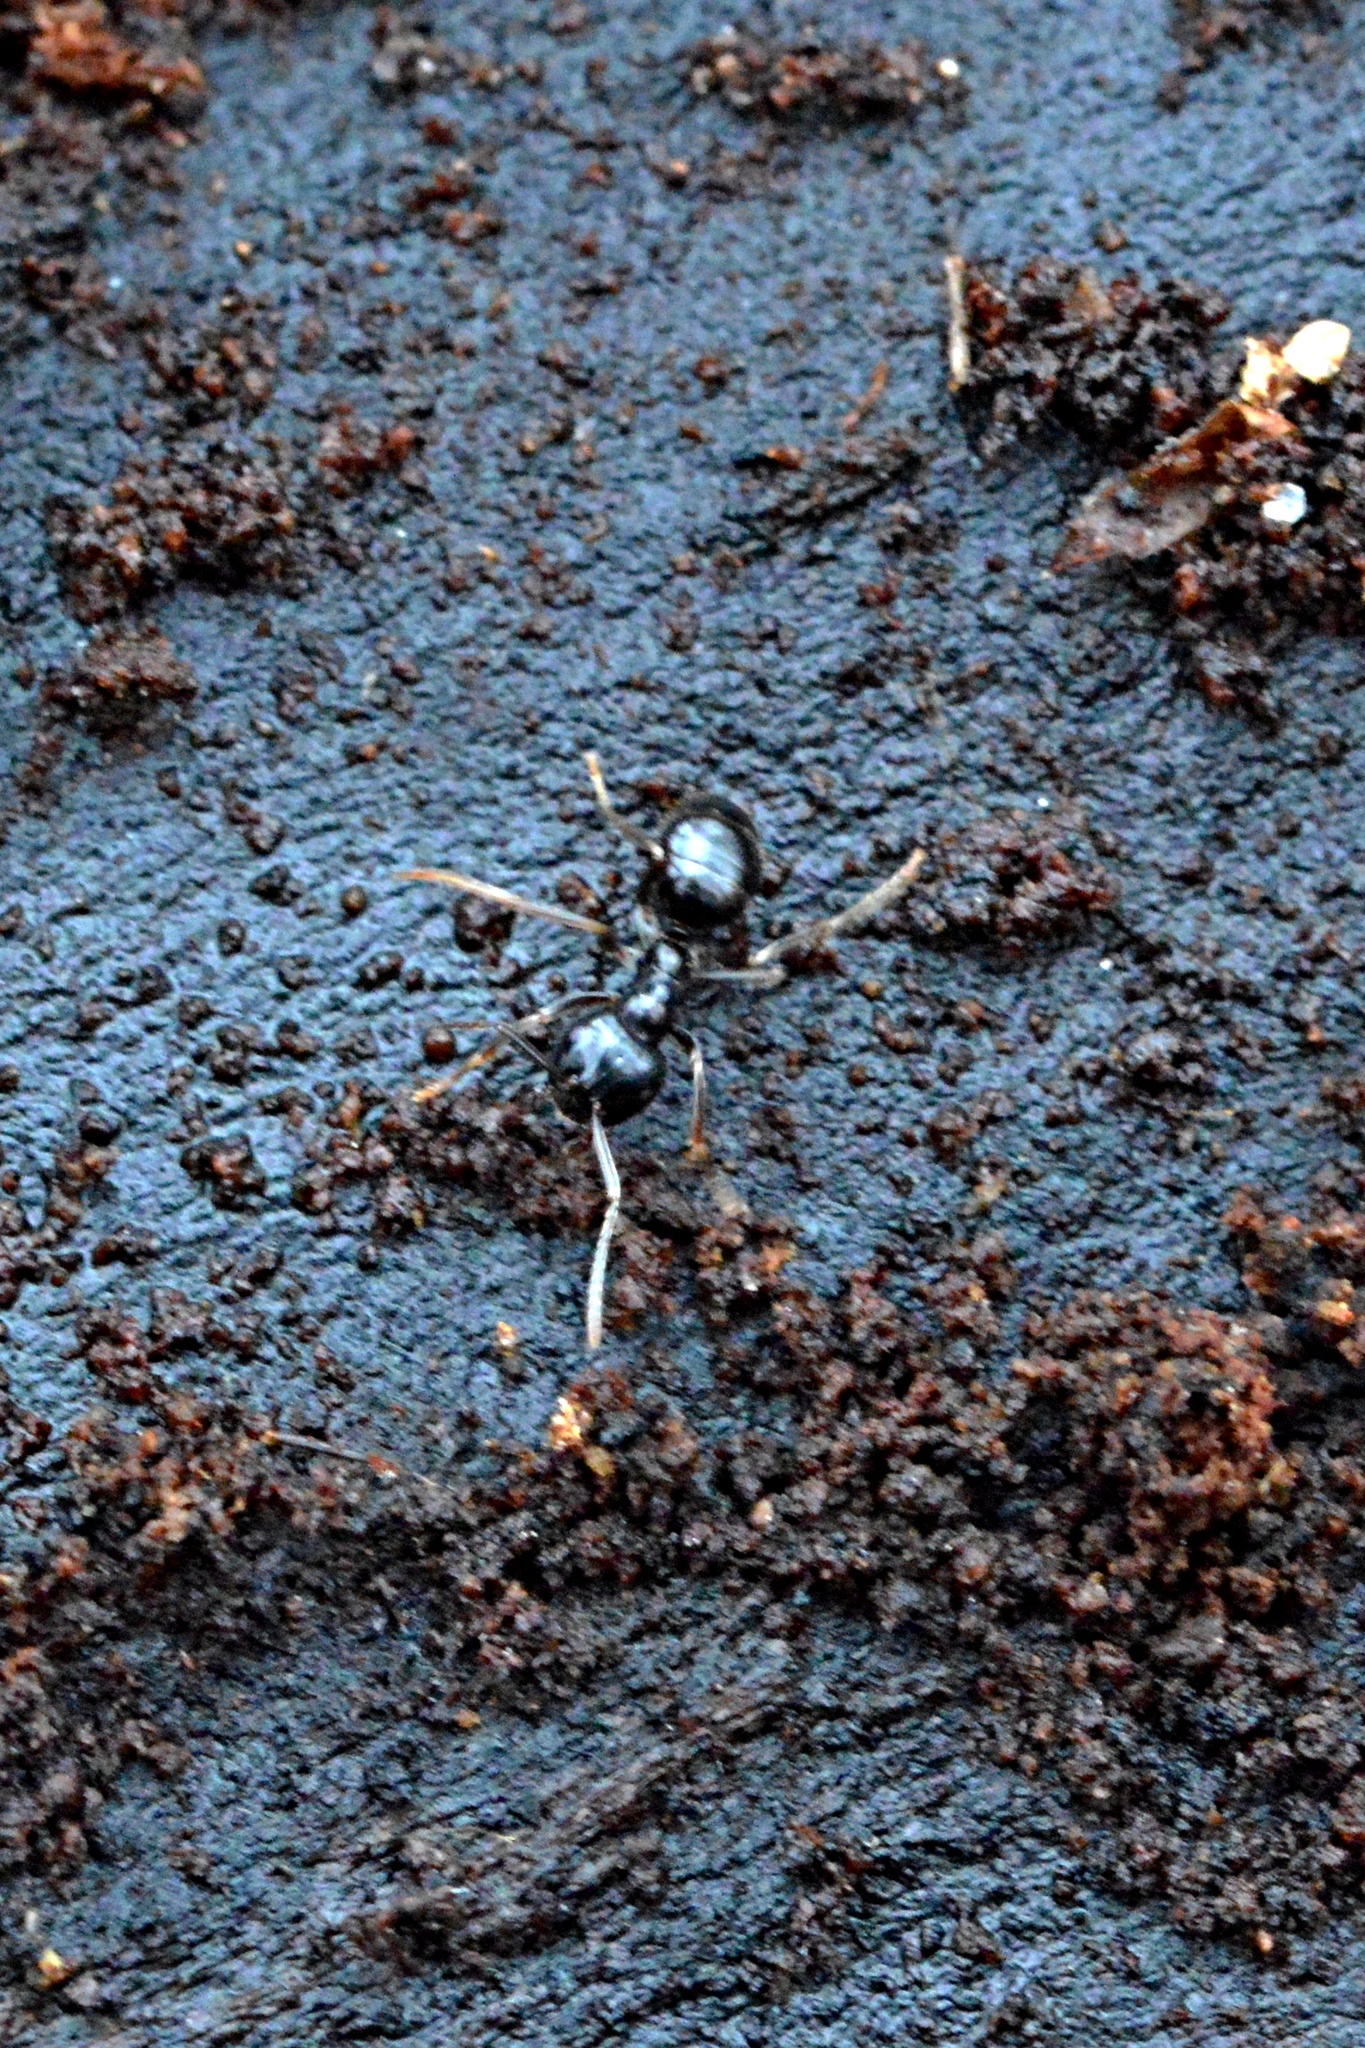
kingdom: Animalia
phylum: Arthropoda
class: Insecta
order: Hymenoptera
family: Formicidae
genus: Lasius
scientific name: Lasius fuliginosus
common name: Jet ant
